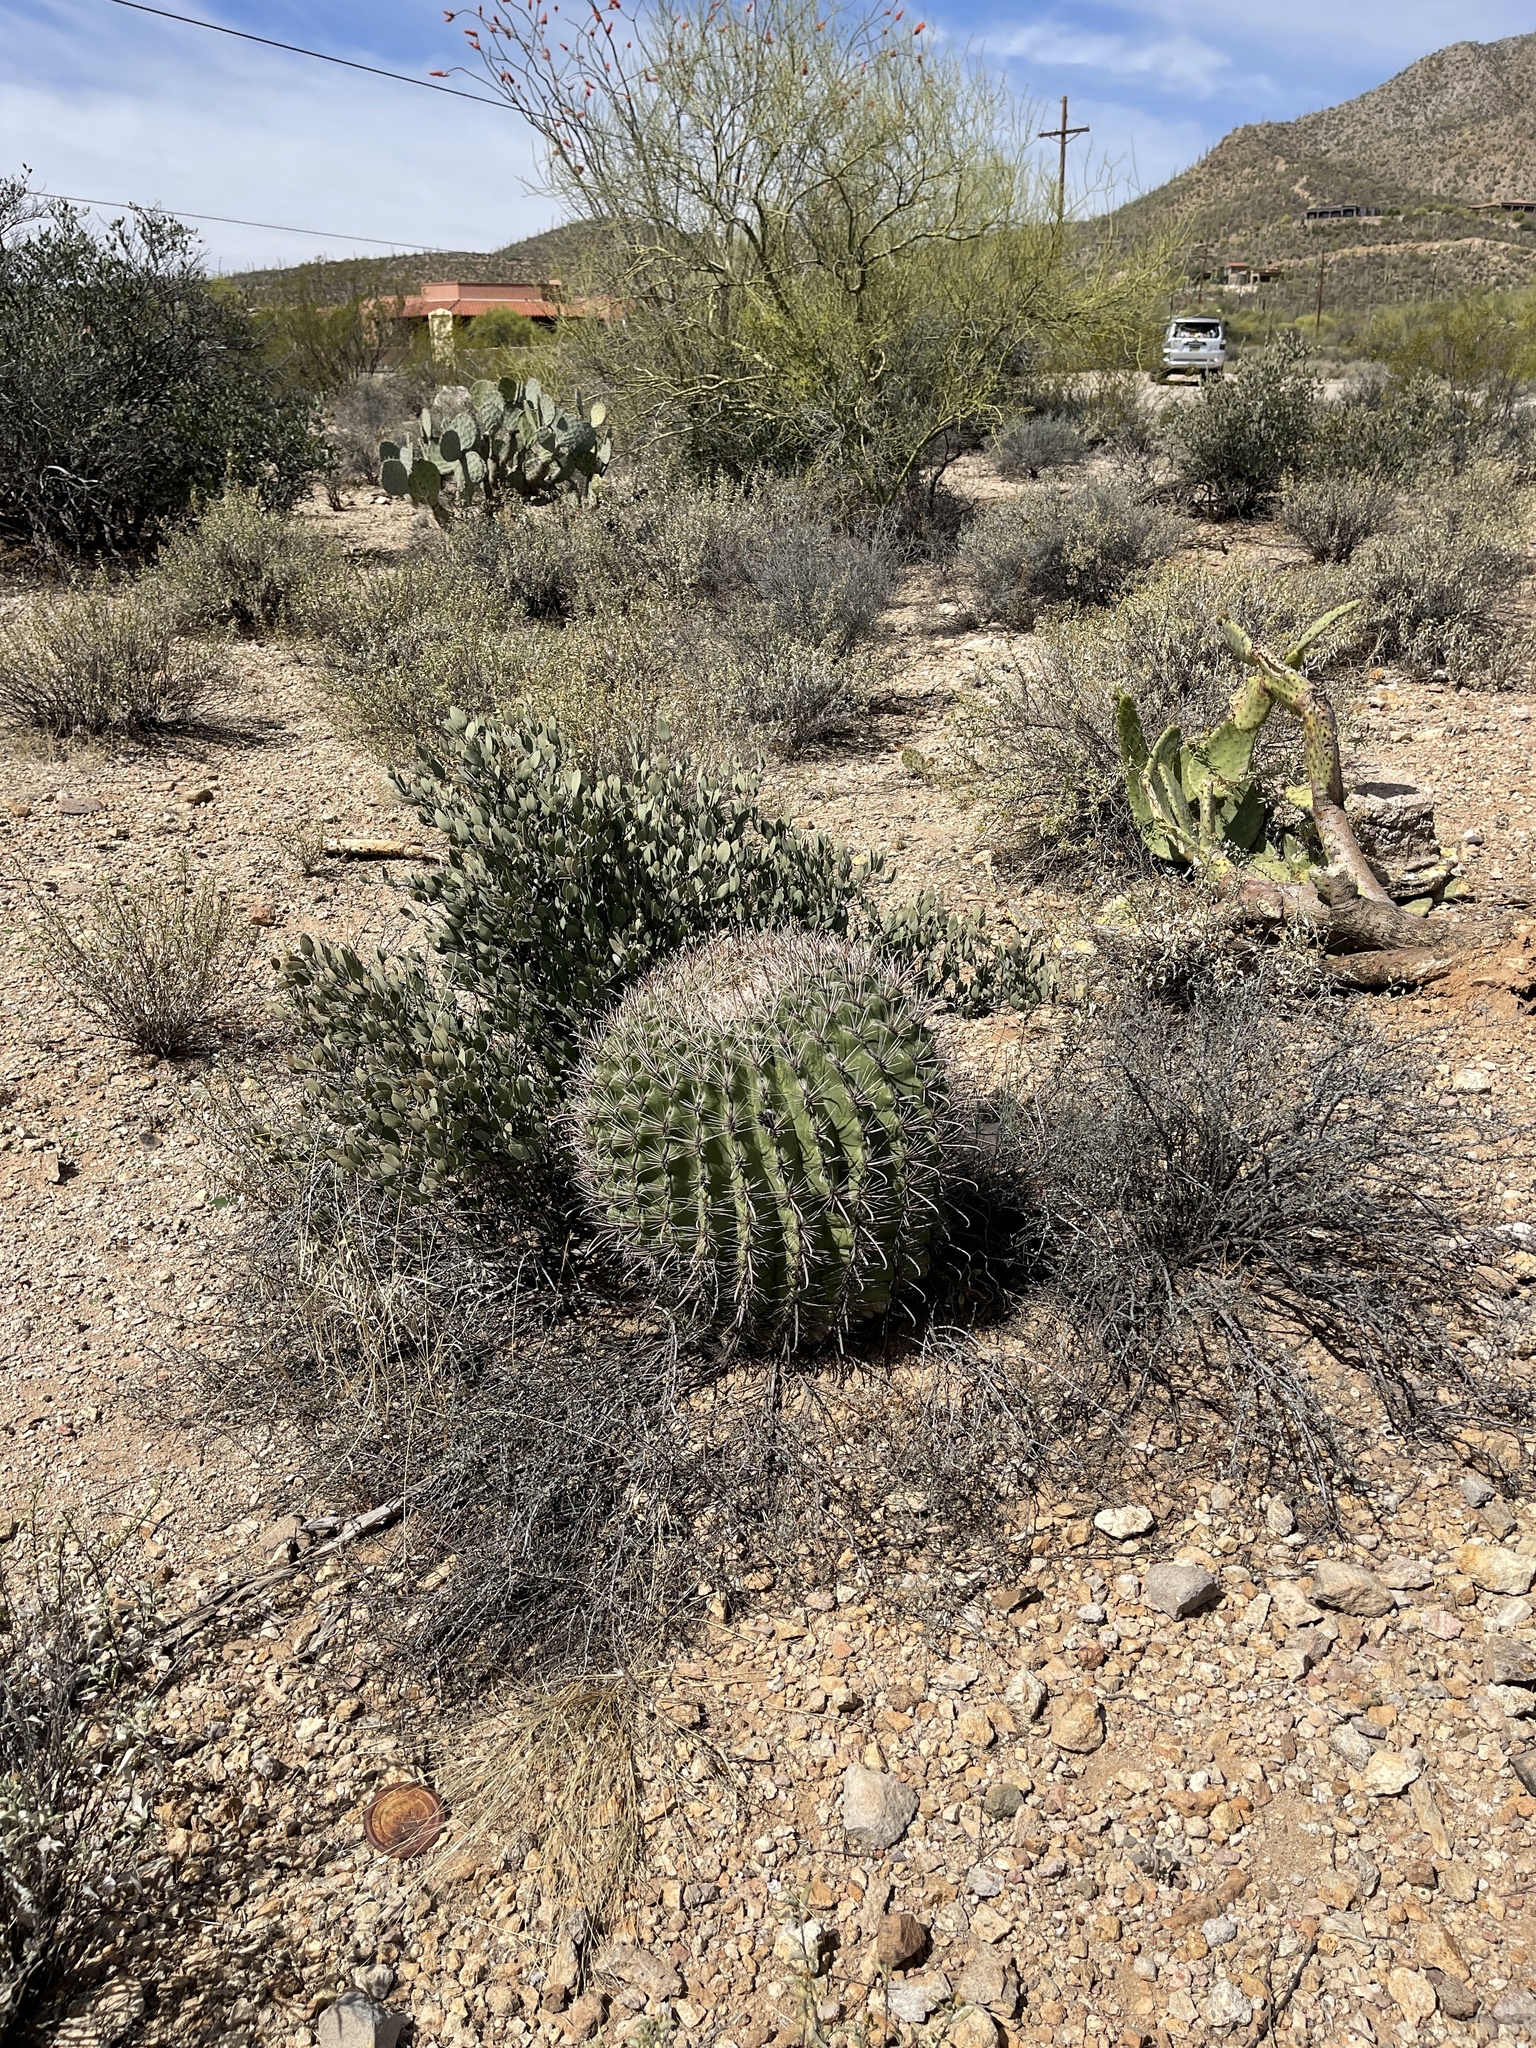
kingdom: Plantae
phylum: Tracheophyta
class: Magnoliopsida
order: Caryophyllales
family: Cactaceae
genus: Ferocactus
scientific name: Ferocactus wislizeni
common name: Candy barrel cactus
